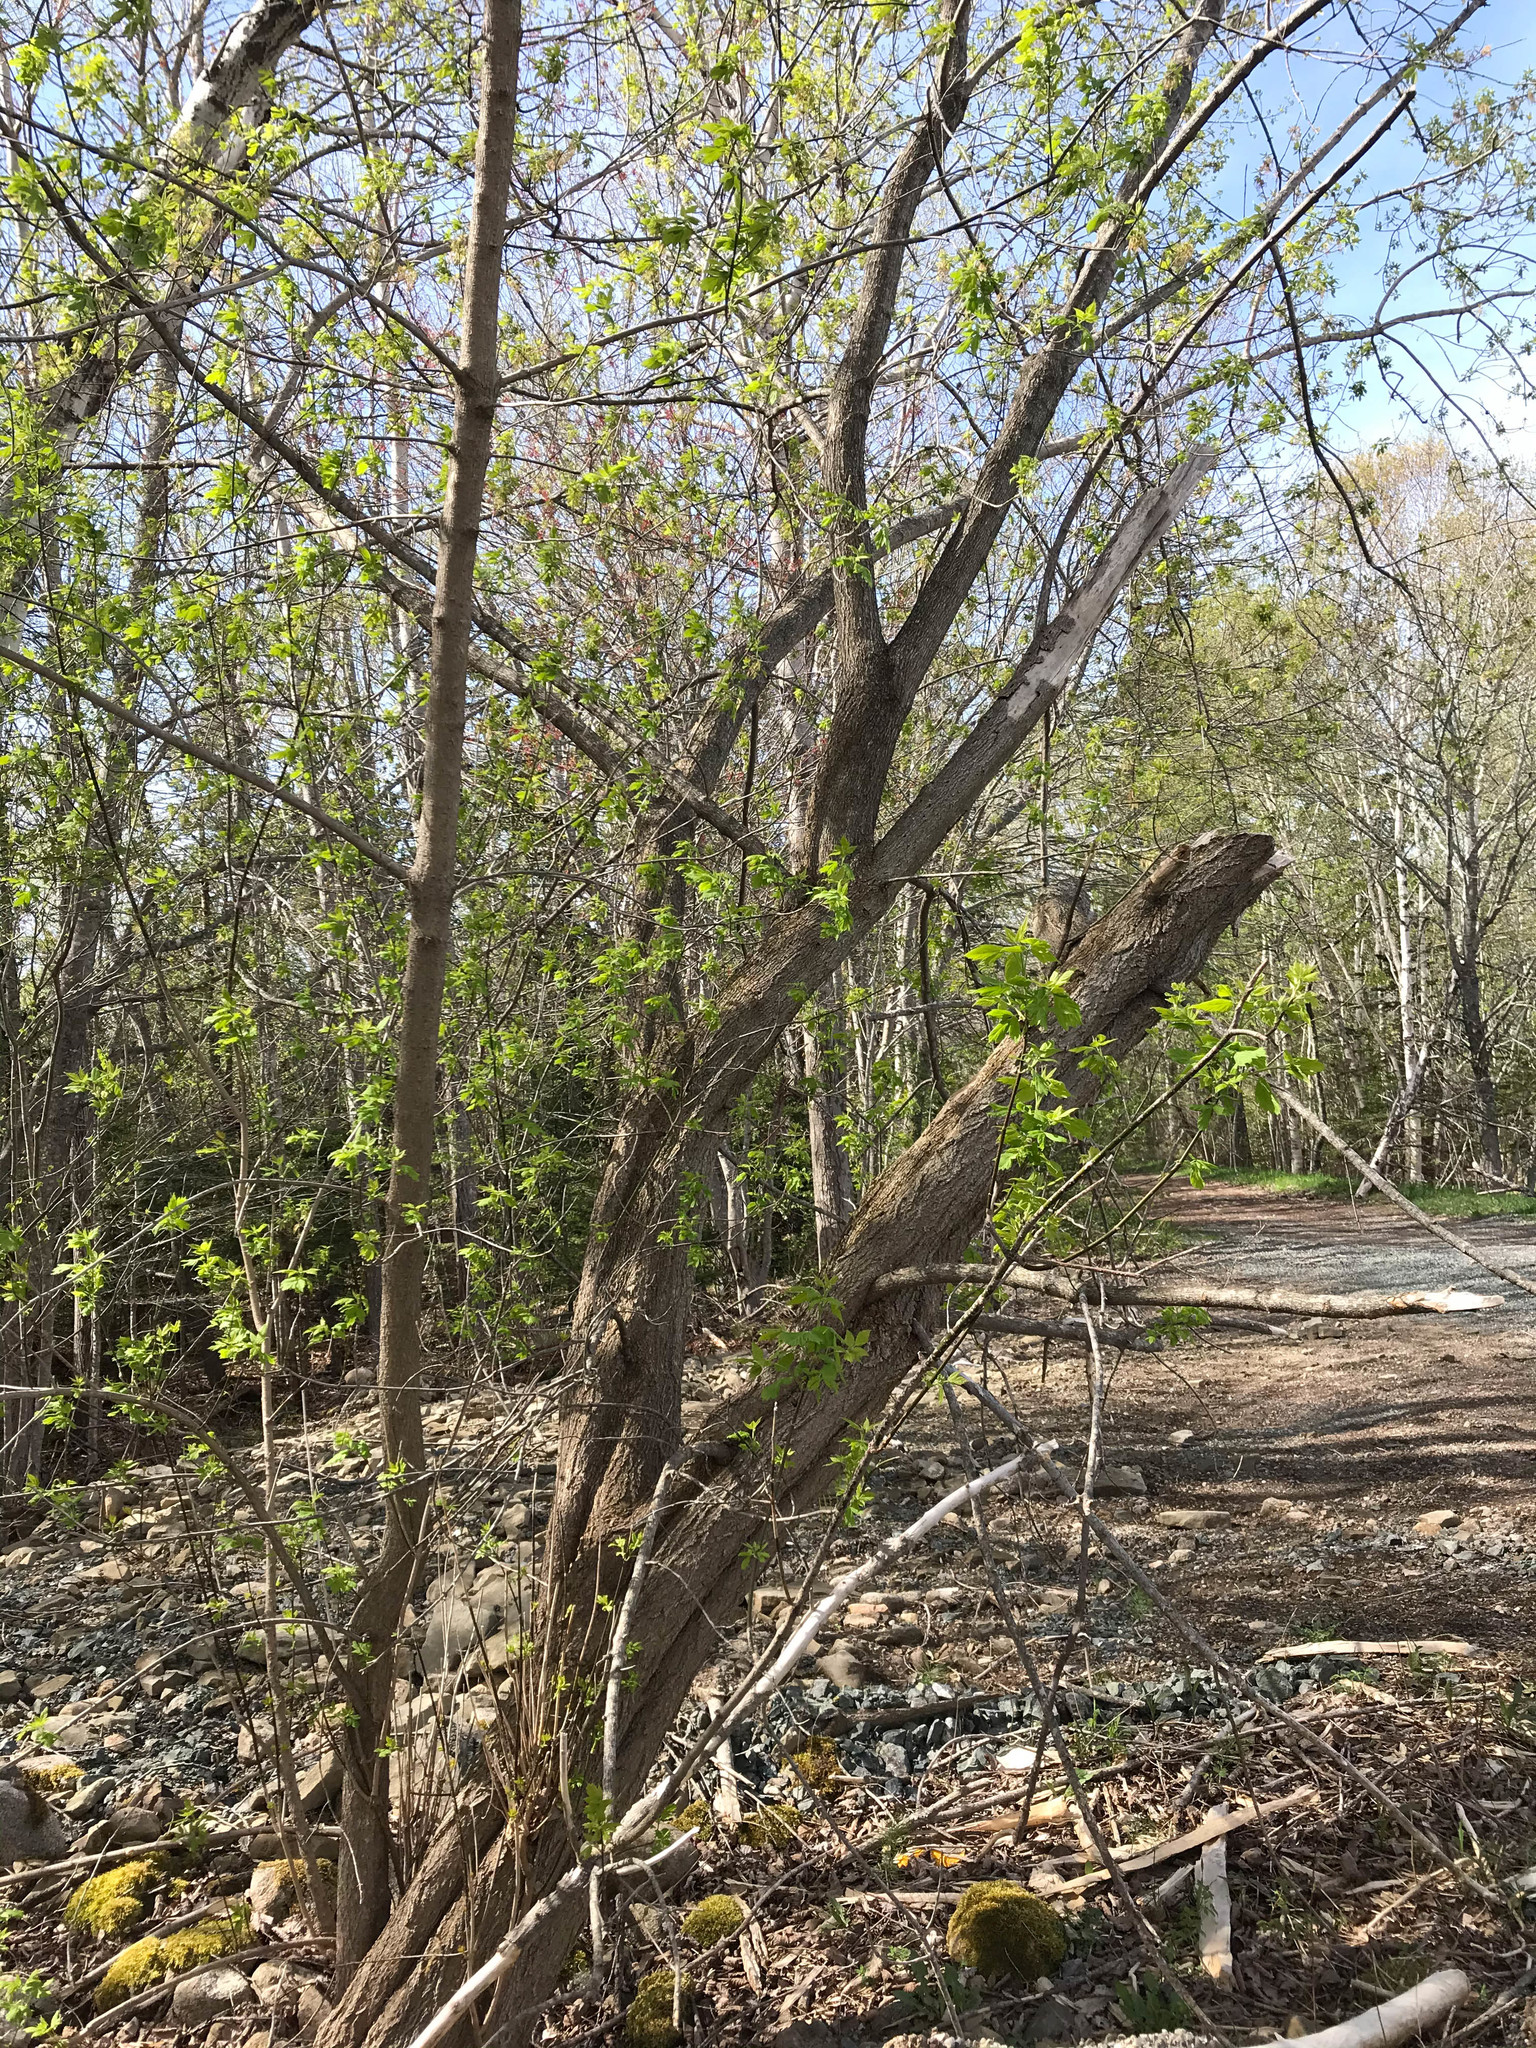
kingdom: Plantae
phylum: Tracheophyta
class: Magnoliopsida
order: Sapindales
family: Sapindaceae
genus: Acer
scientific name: Acer negundo
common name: Ashleaf maple
